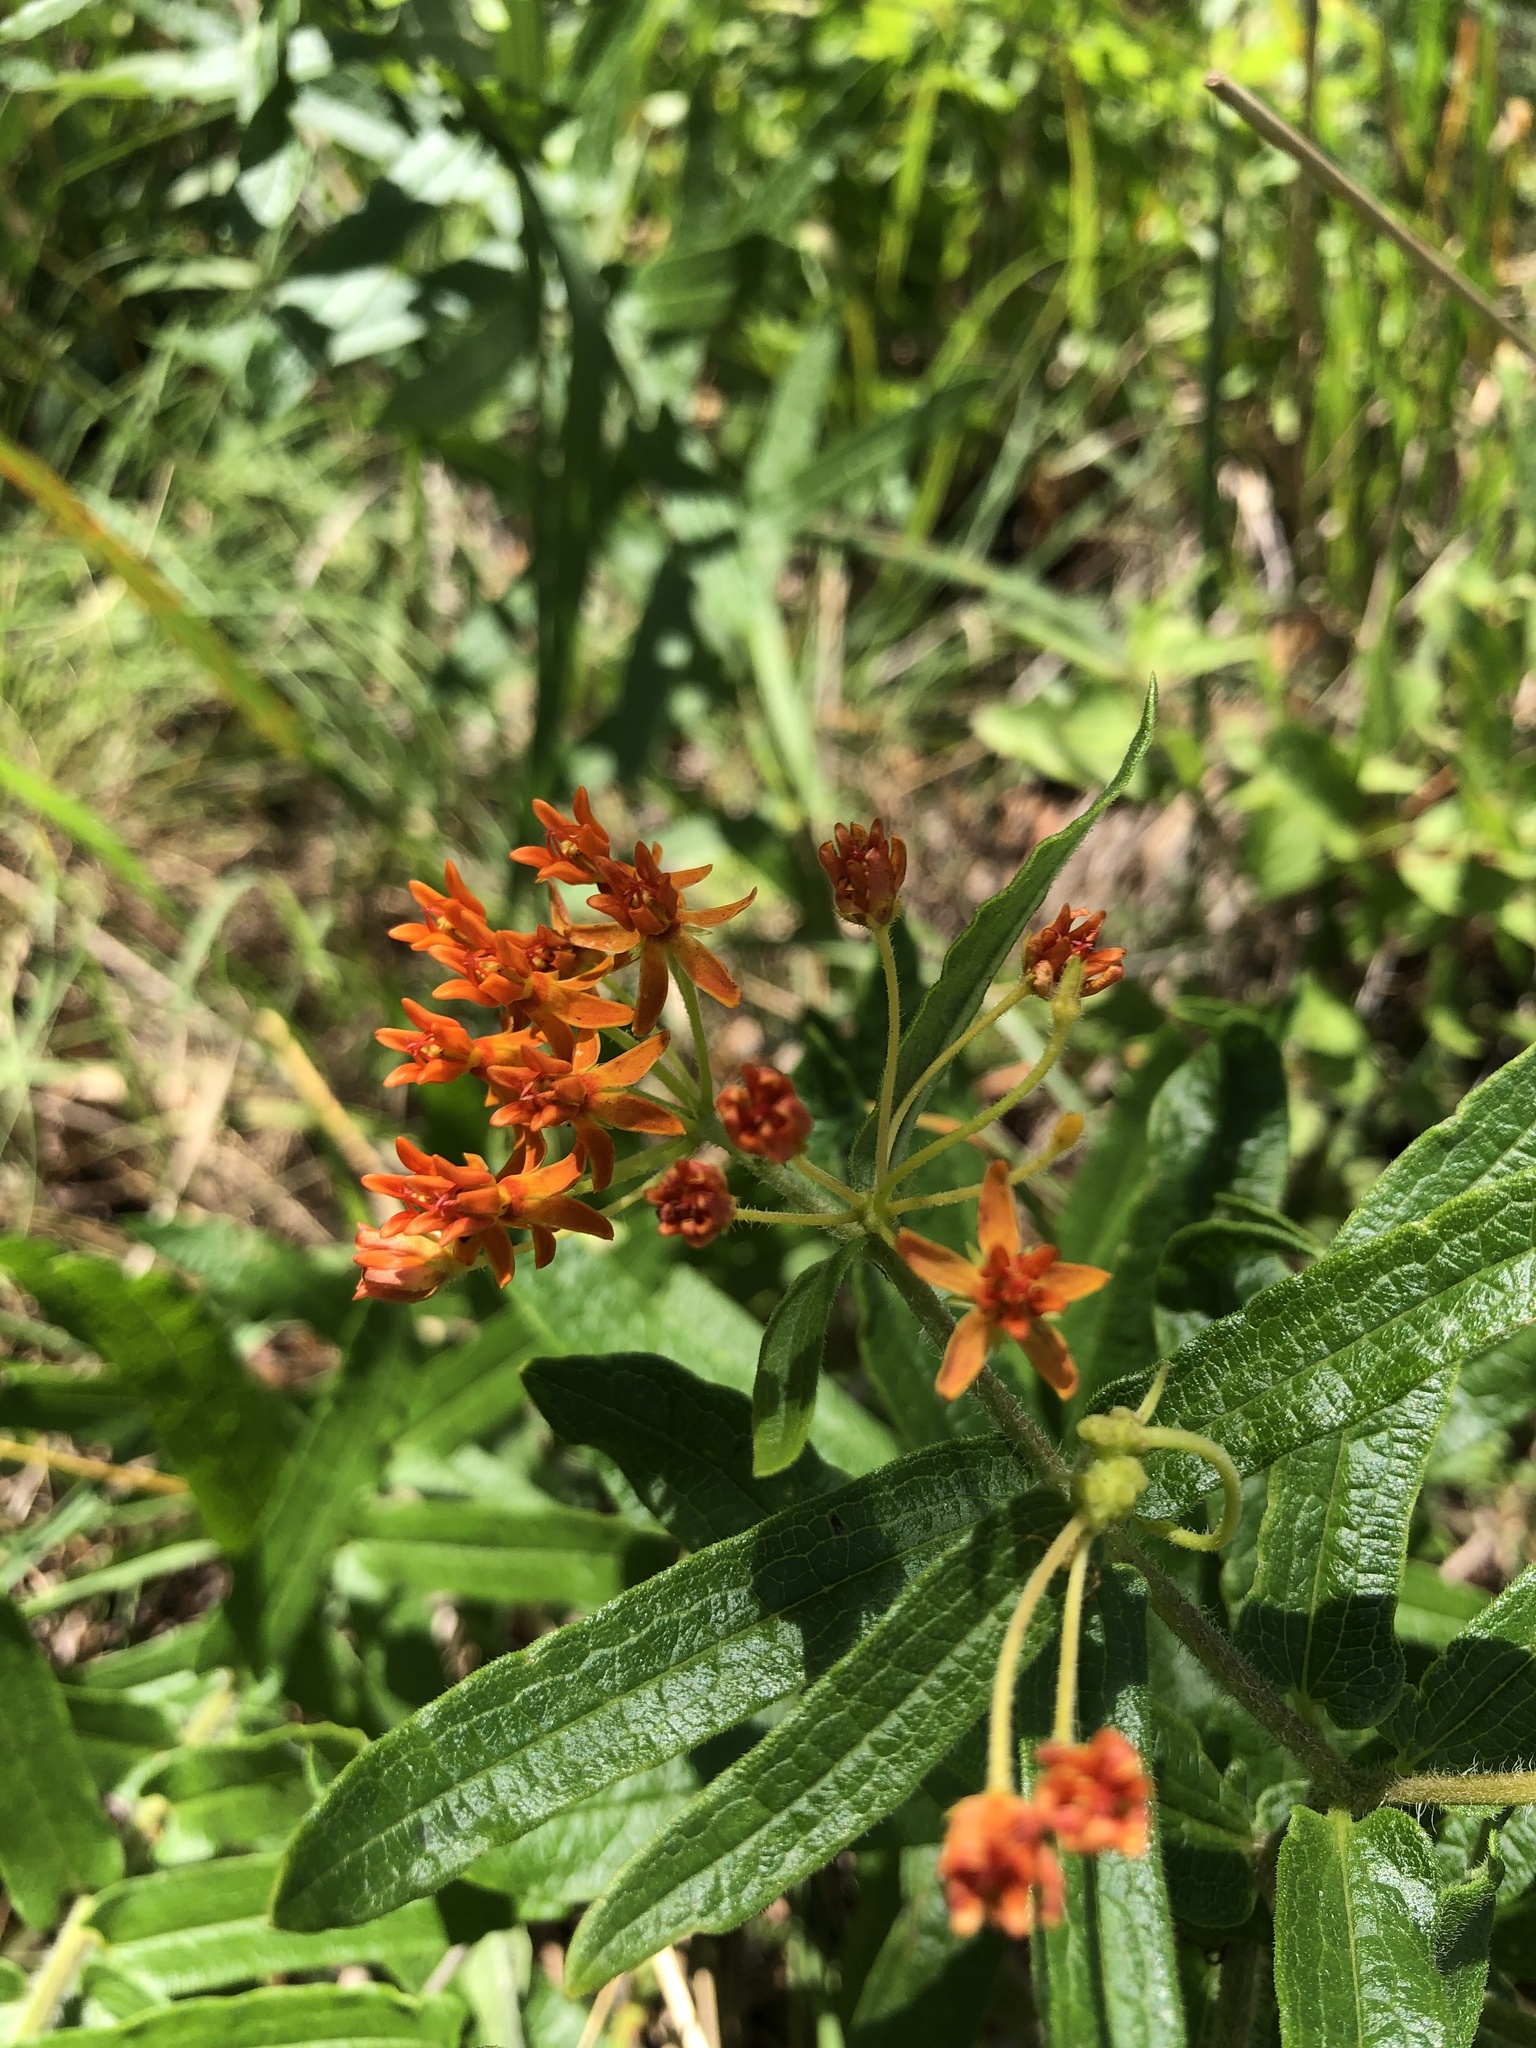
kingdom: Plantae
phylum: Tracheophyta
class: Magnoliopsida
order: Gentianales
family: Apocynaceae
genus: Asclepias
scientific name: Asclepias tuberosa
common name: Butterfly milkweed
